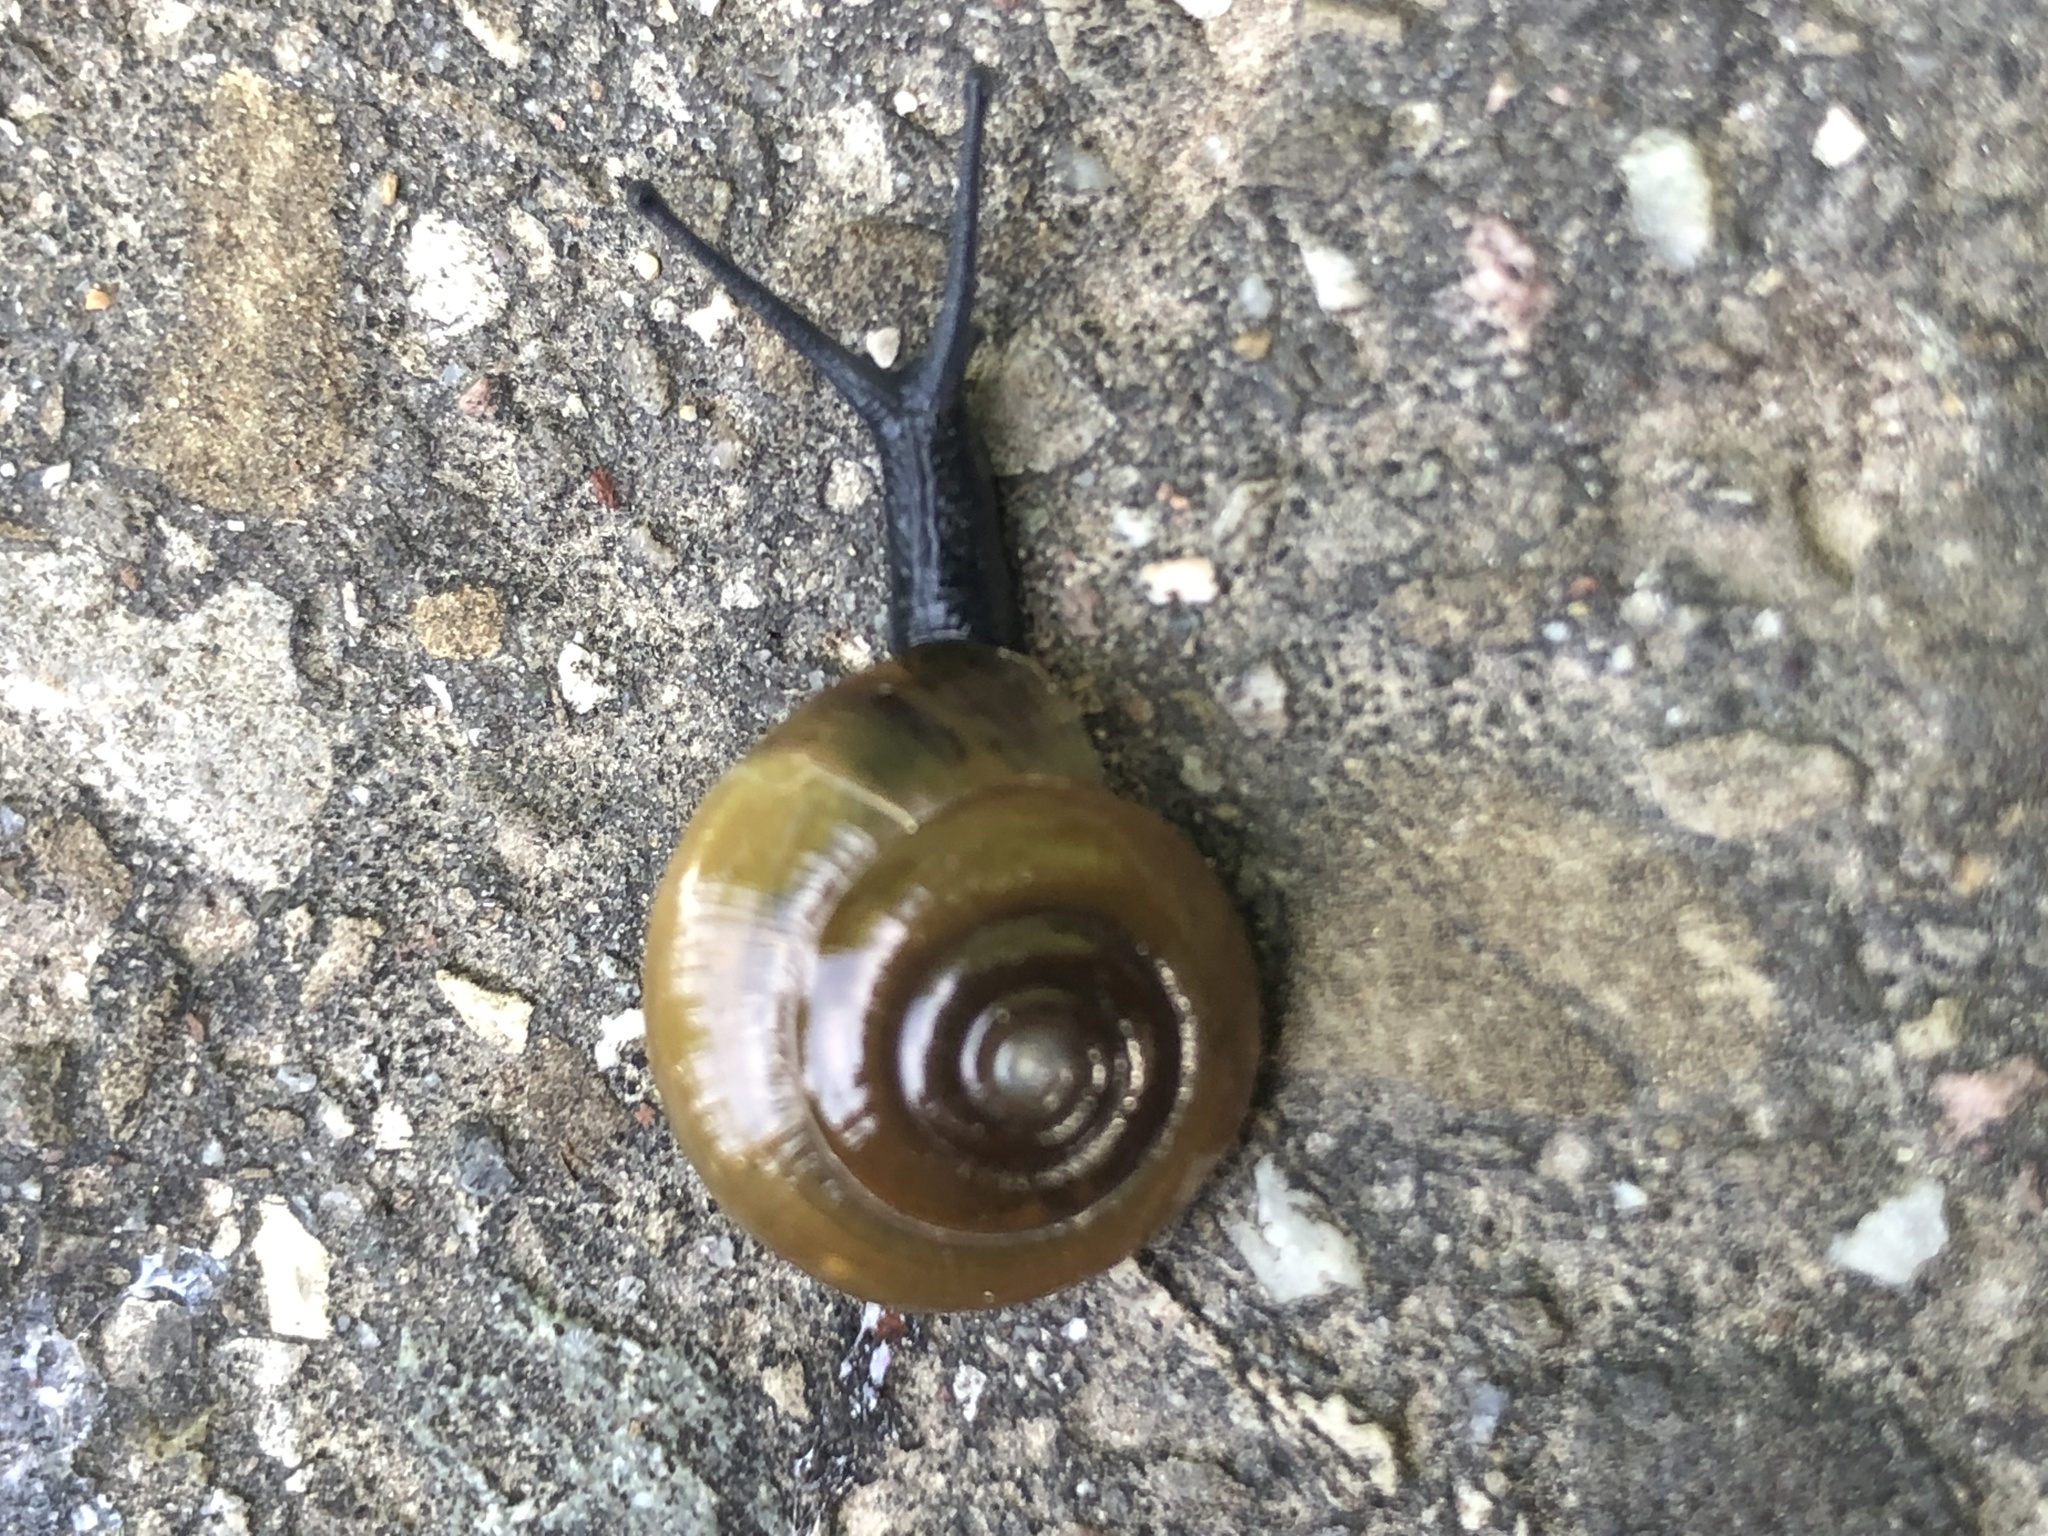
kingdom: Animalia
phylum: Mollusca
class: Gastropoda
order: Stylommatophora
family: Oxychilidae
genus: Oxychilus
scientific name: Oxychilus draparnaudi
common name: Draparnaud's glass snail
